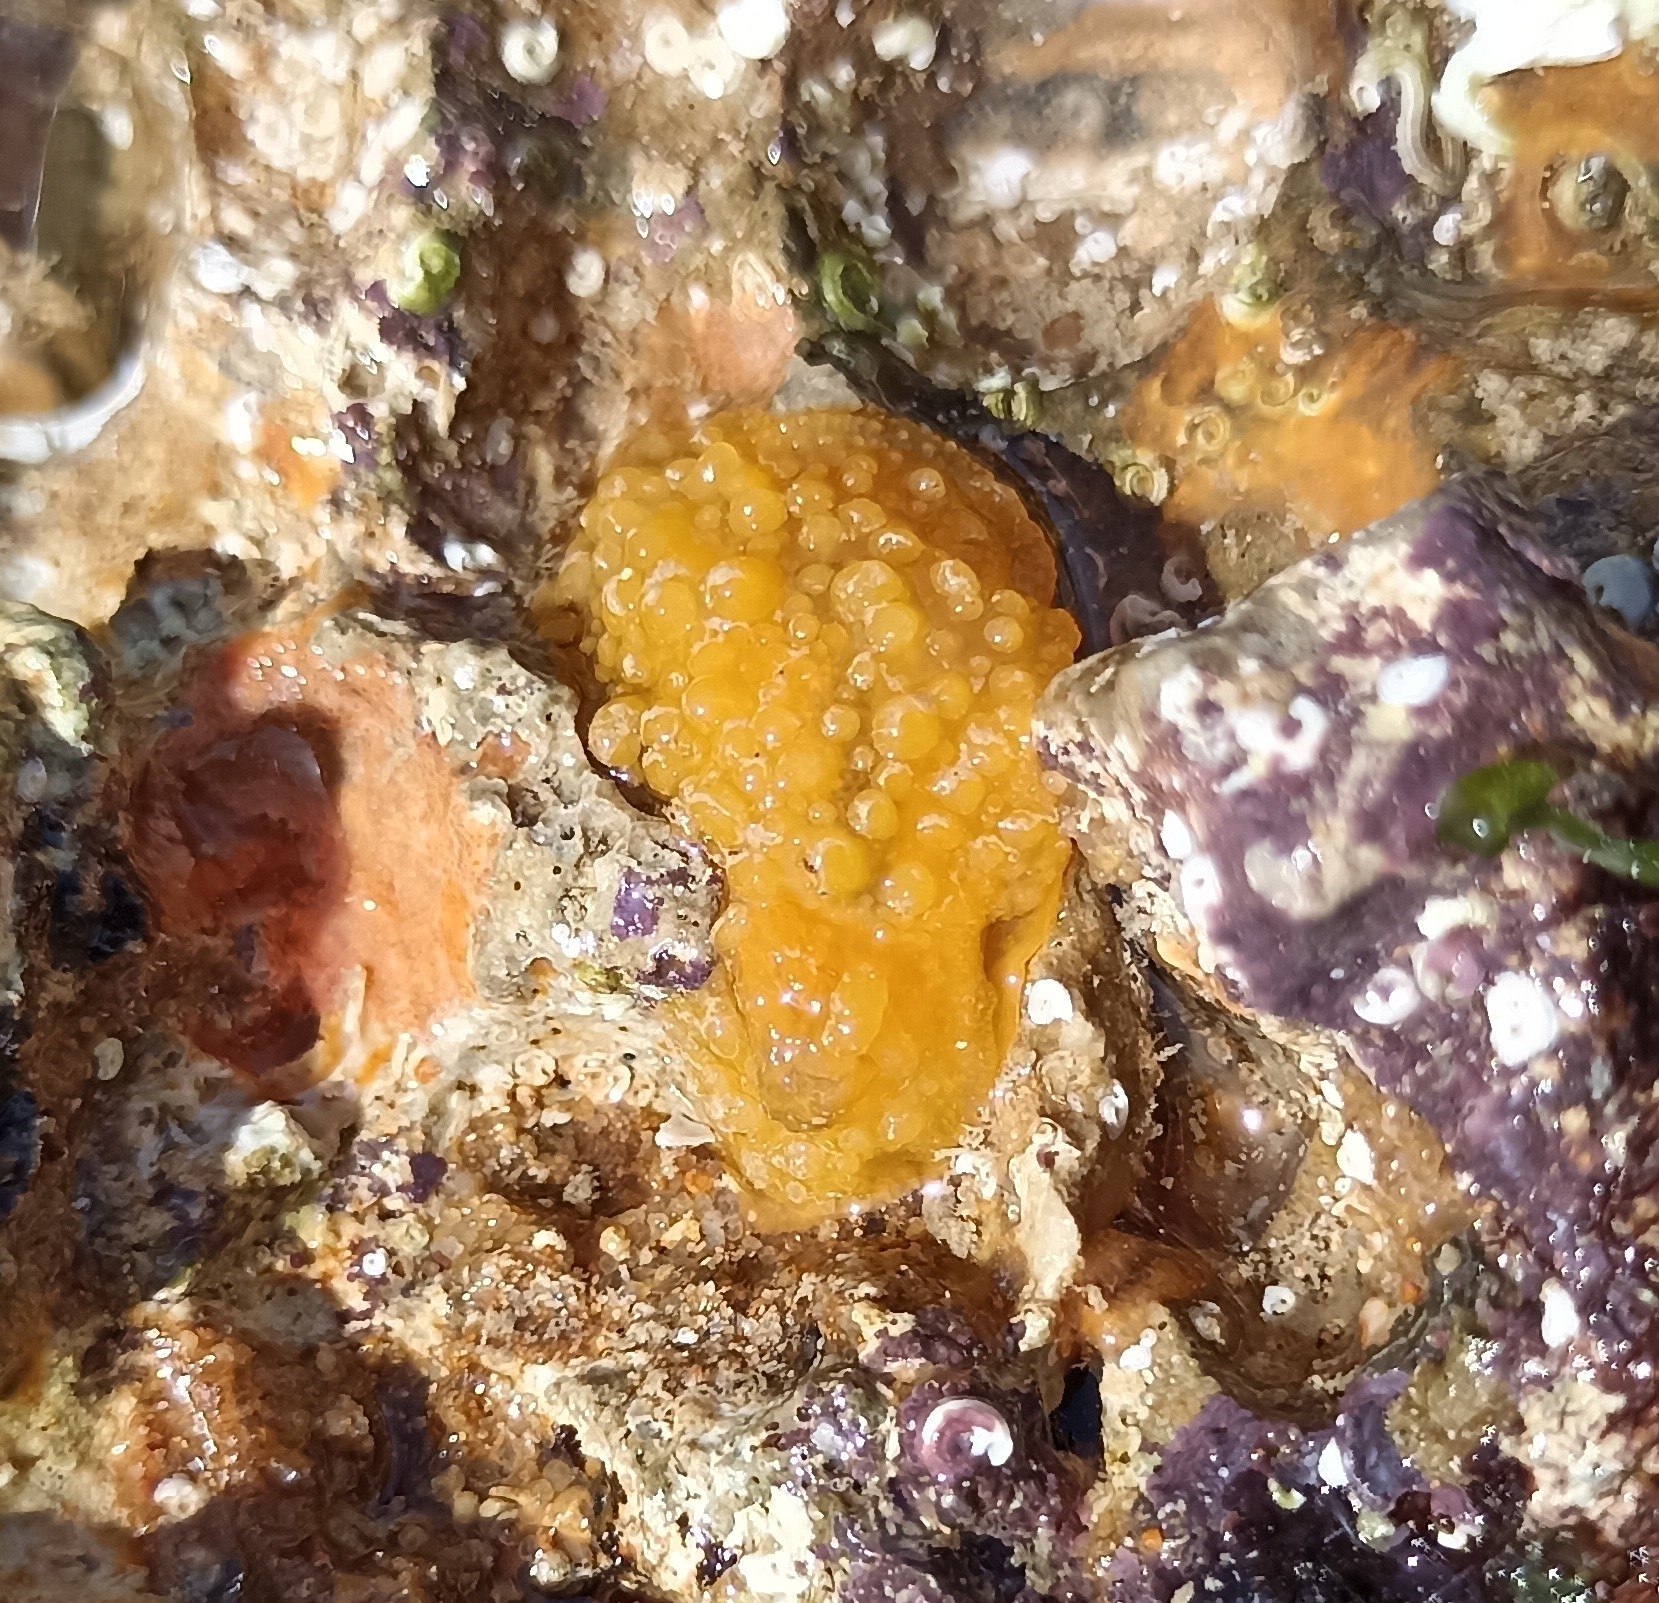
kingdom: Animalia
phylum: Mollusca
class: Gastropoda
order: Nudibranchia
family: Dorididae
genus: Doris
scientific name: Doris verrucosa
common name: Sponge seaslug
